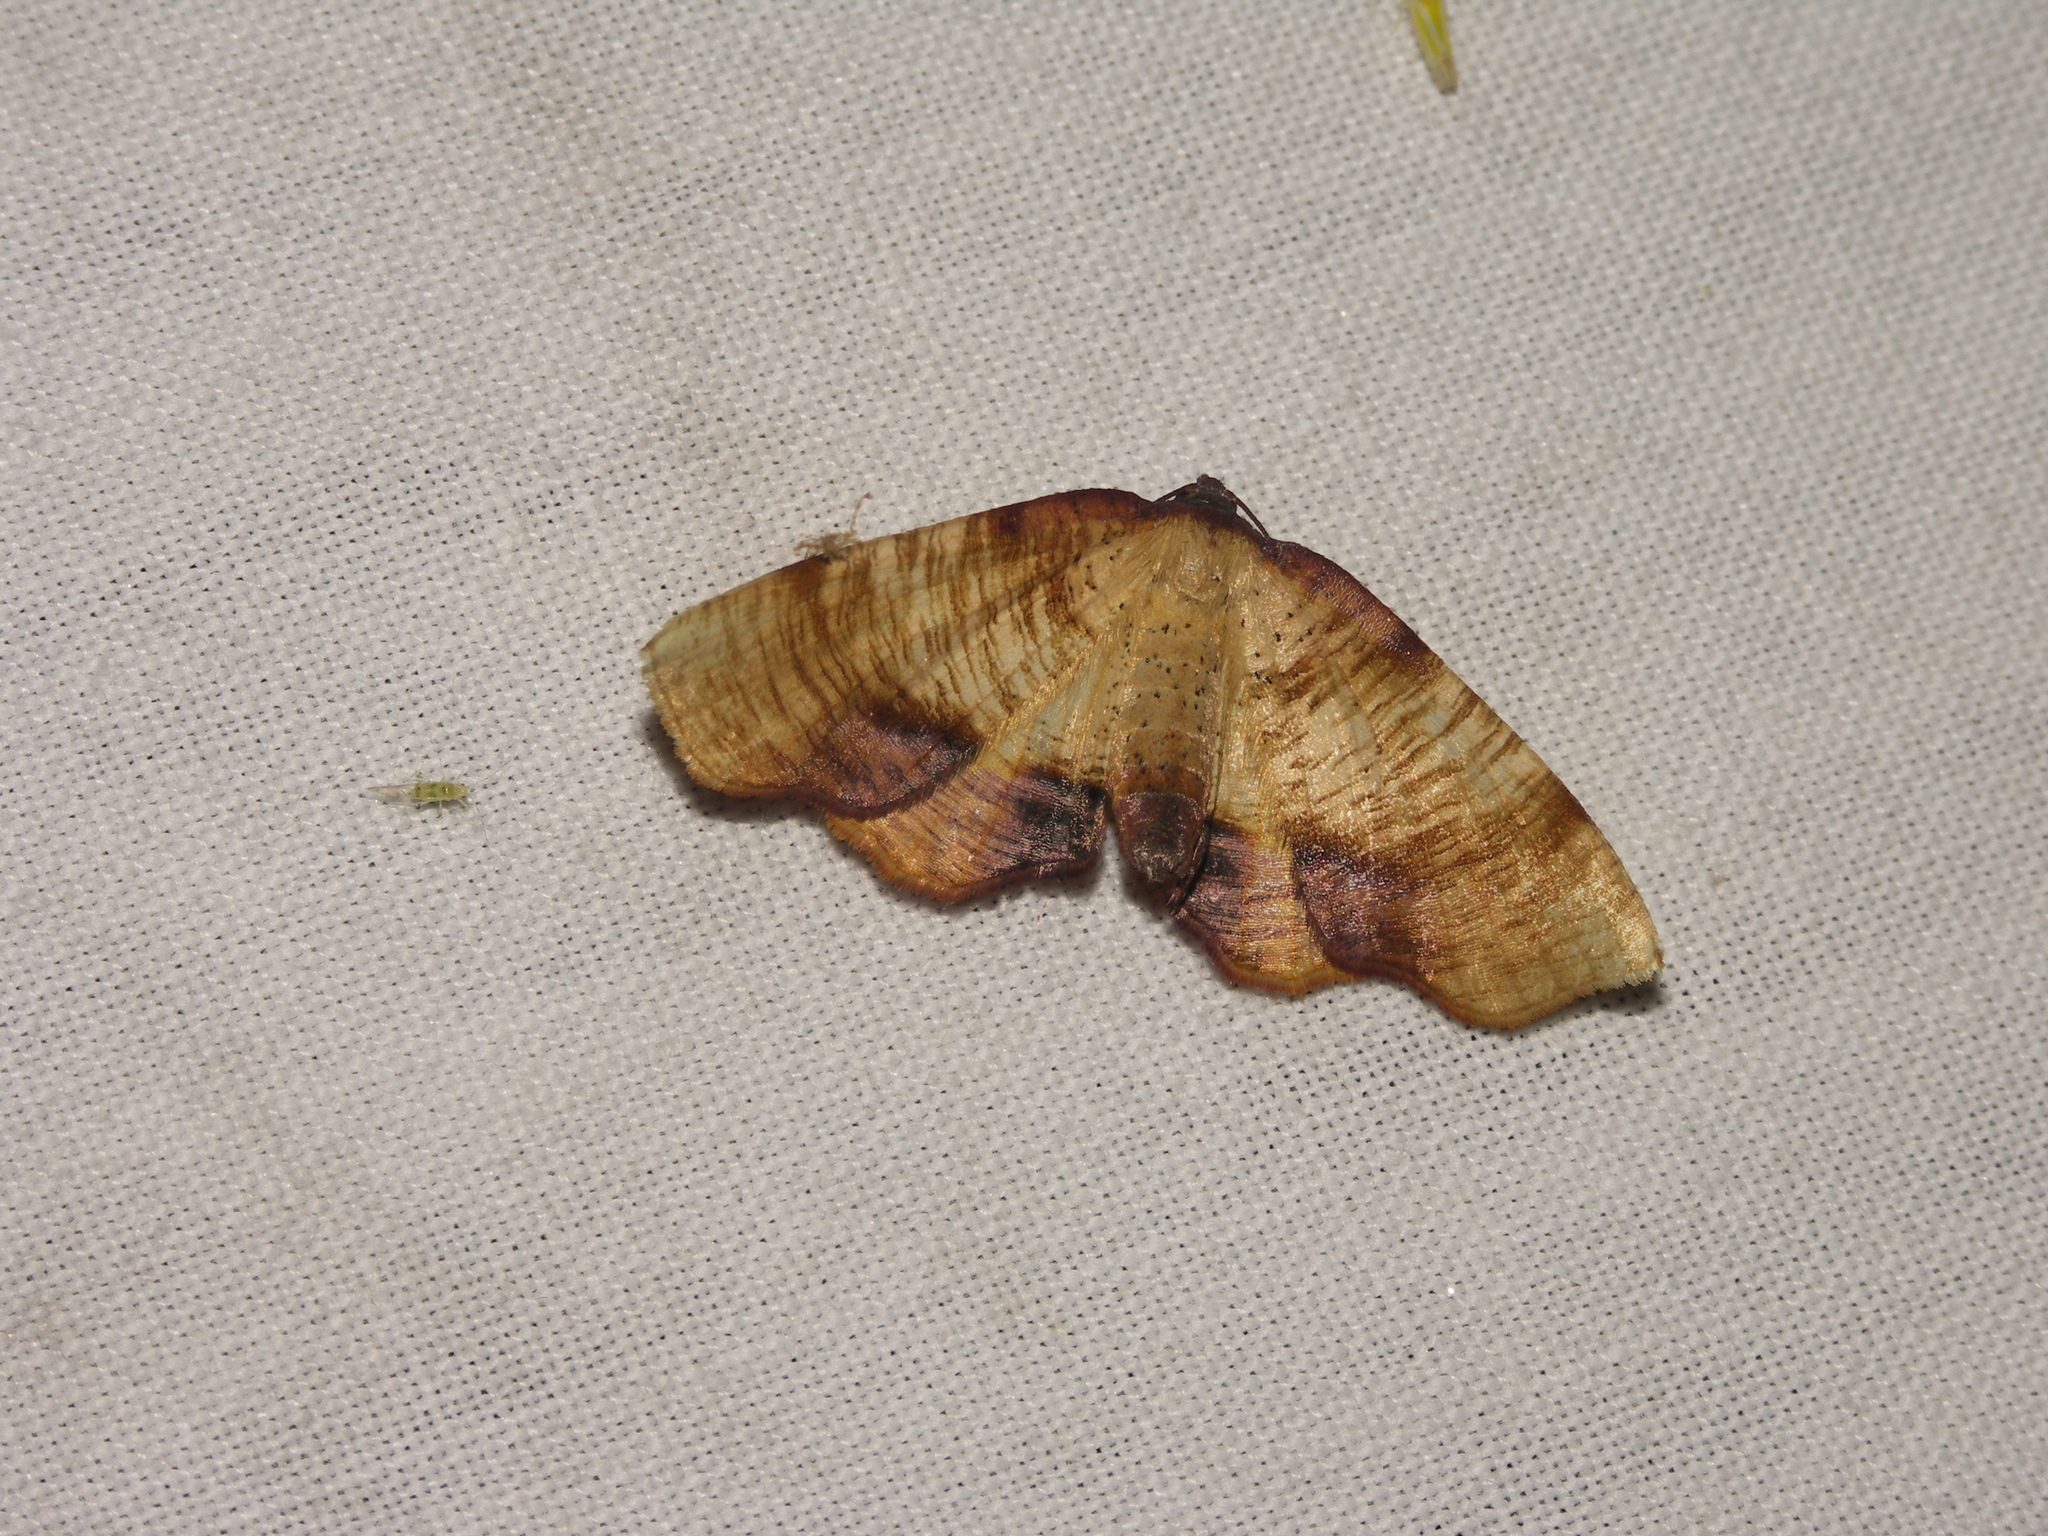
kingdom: Animalia
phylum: Arthropoda
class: Insecta
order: Lepidoptera
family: Geometridae
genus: Plagodis
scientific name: Plagodis dolabraria
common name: Scorched wing
